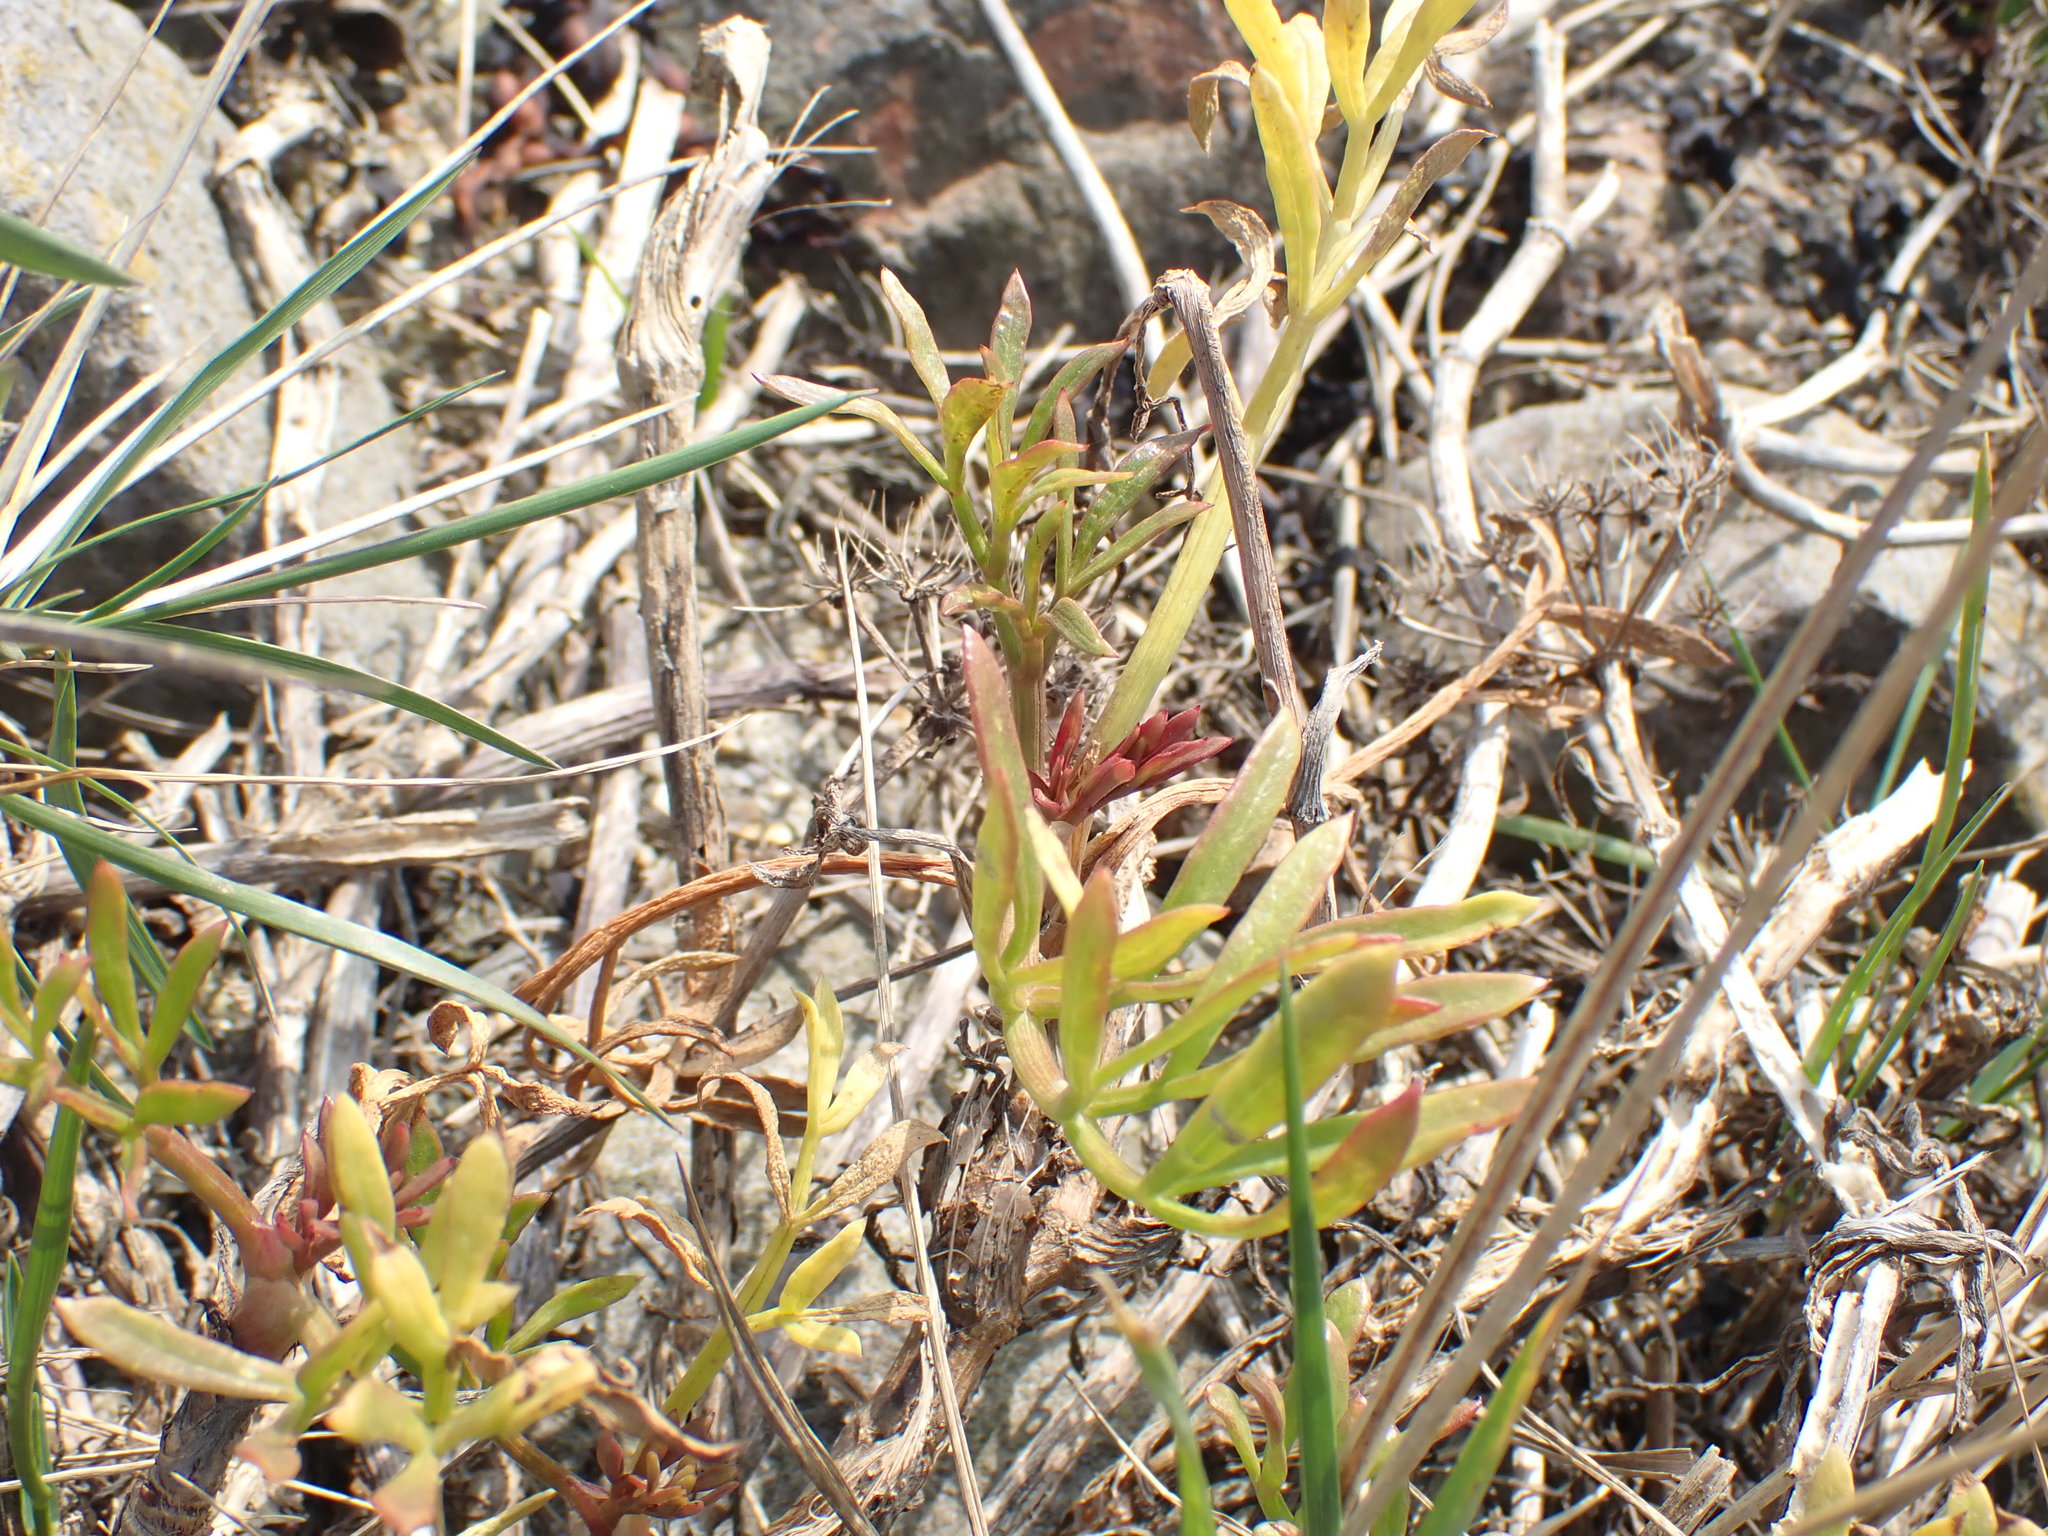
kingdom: Plantae
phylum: Tracheophyta
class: Magnoliopsida
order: Apiales
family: Apiaceae
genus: Crithmum
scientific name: Crithmum maritimum
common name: Rock samphire
